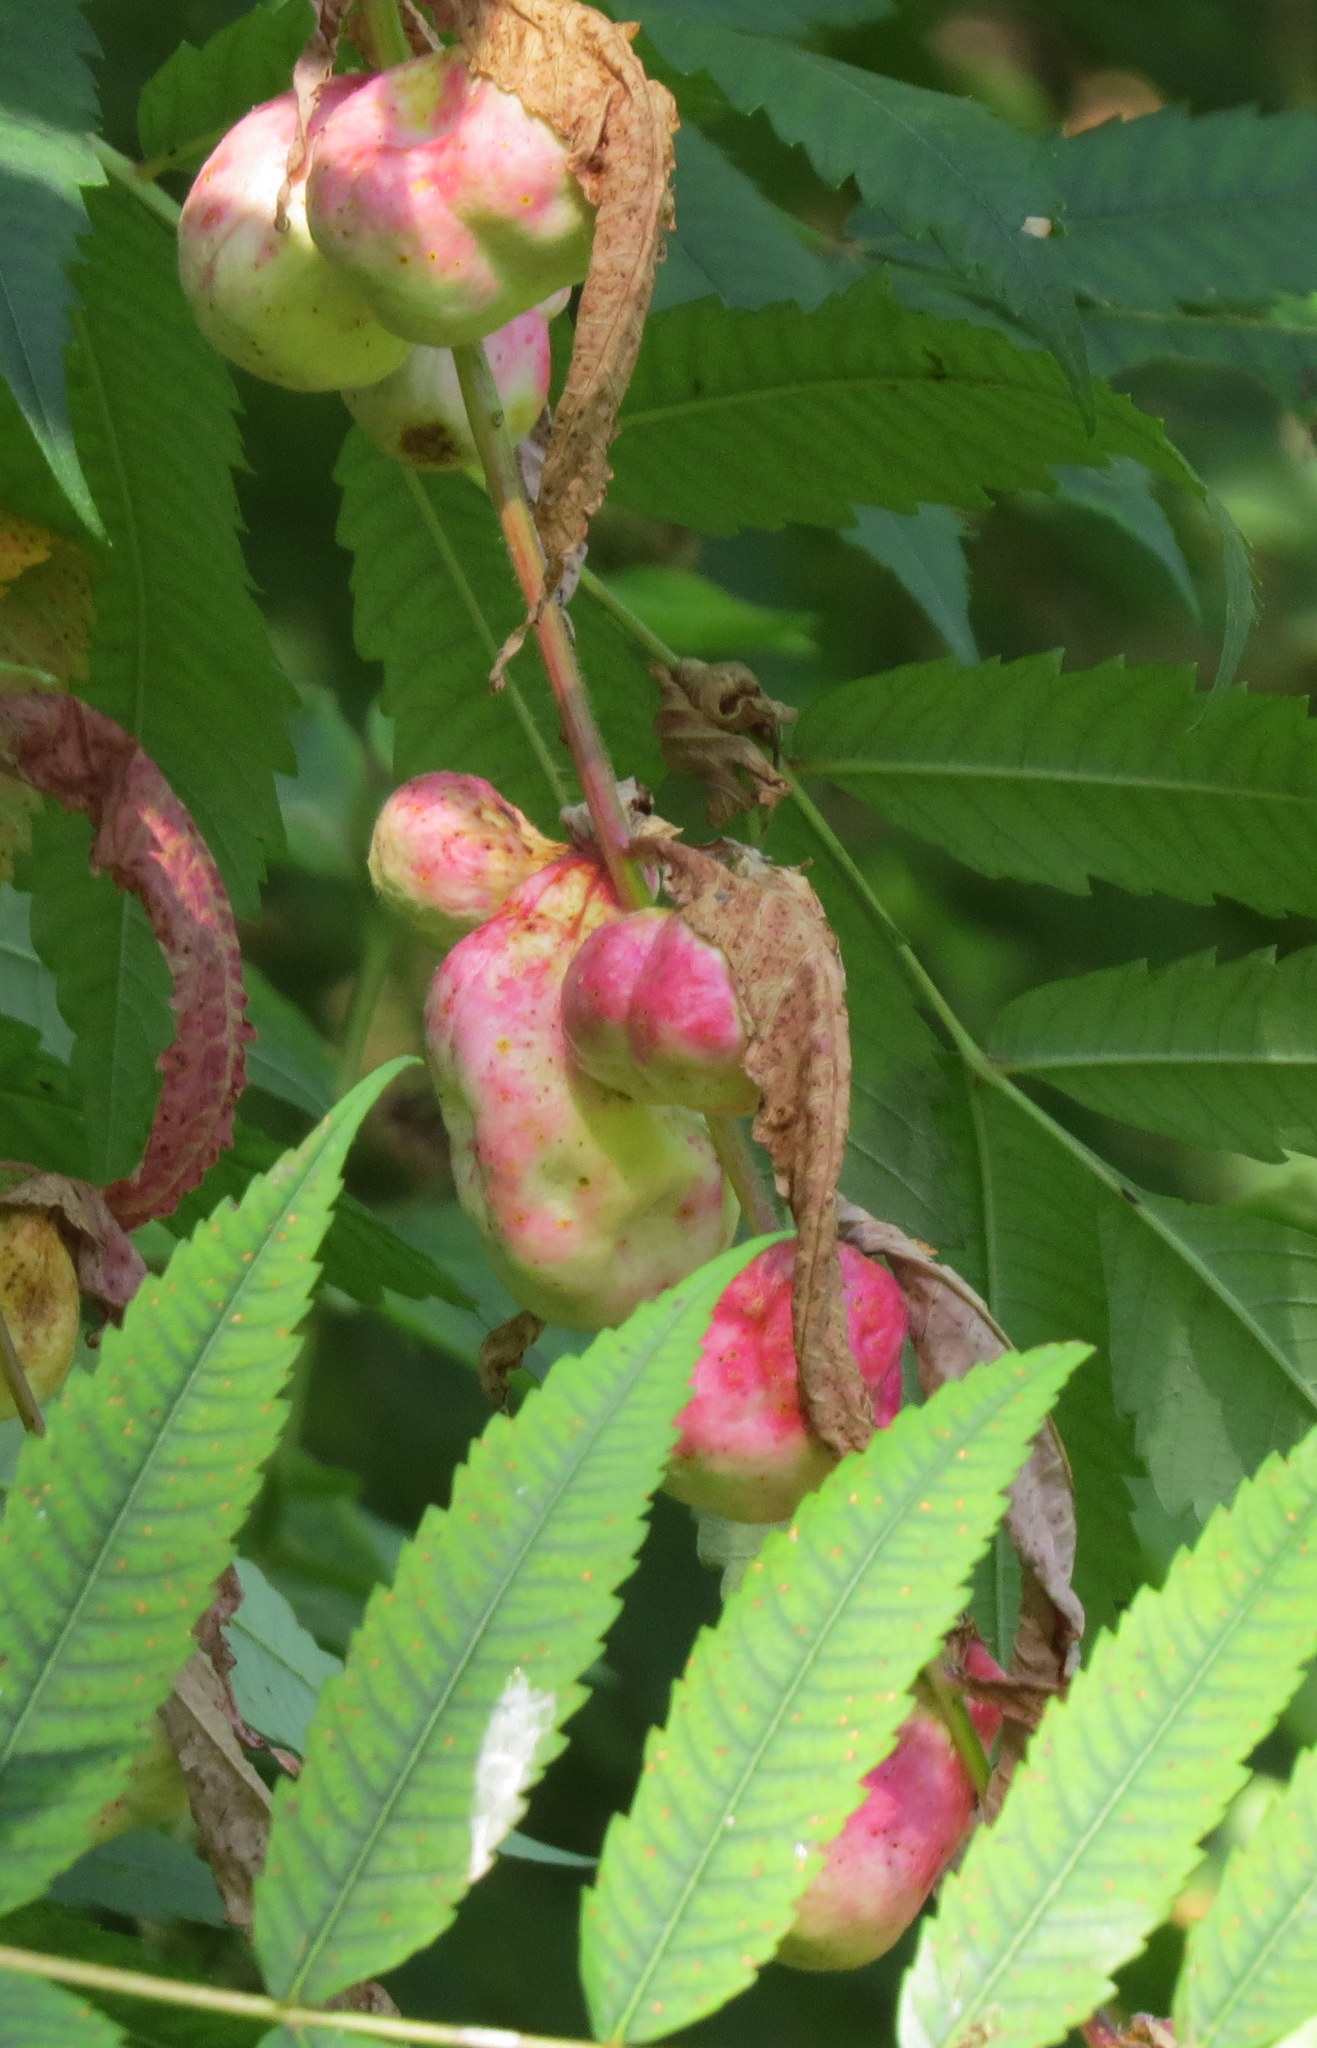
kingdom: Animalia
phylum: Arthropoda
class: Insecta
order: Hemiptera
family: Aphididae
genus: Melaphis
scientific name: Melaphis rhois
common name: Sumac gall aphid
